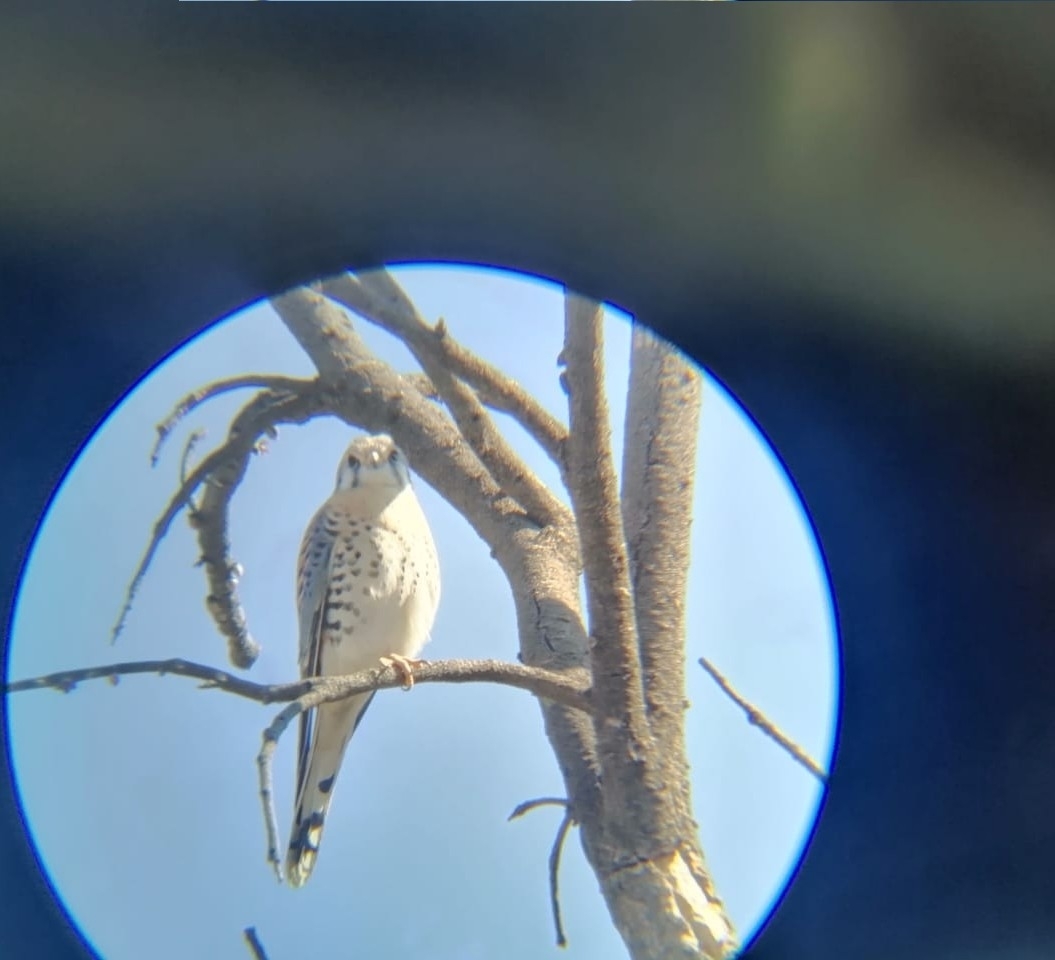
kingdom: Animalia
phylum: Chordata
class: Aves
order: Falconiformes
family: Falconidae
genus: Falco
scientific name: Falco sparverius
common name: American kestrel
